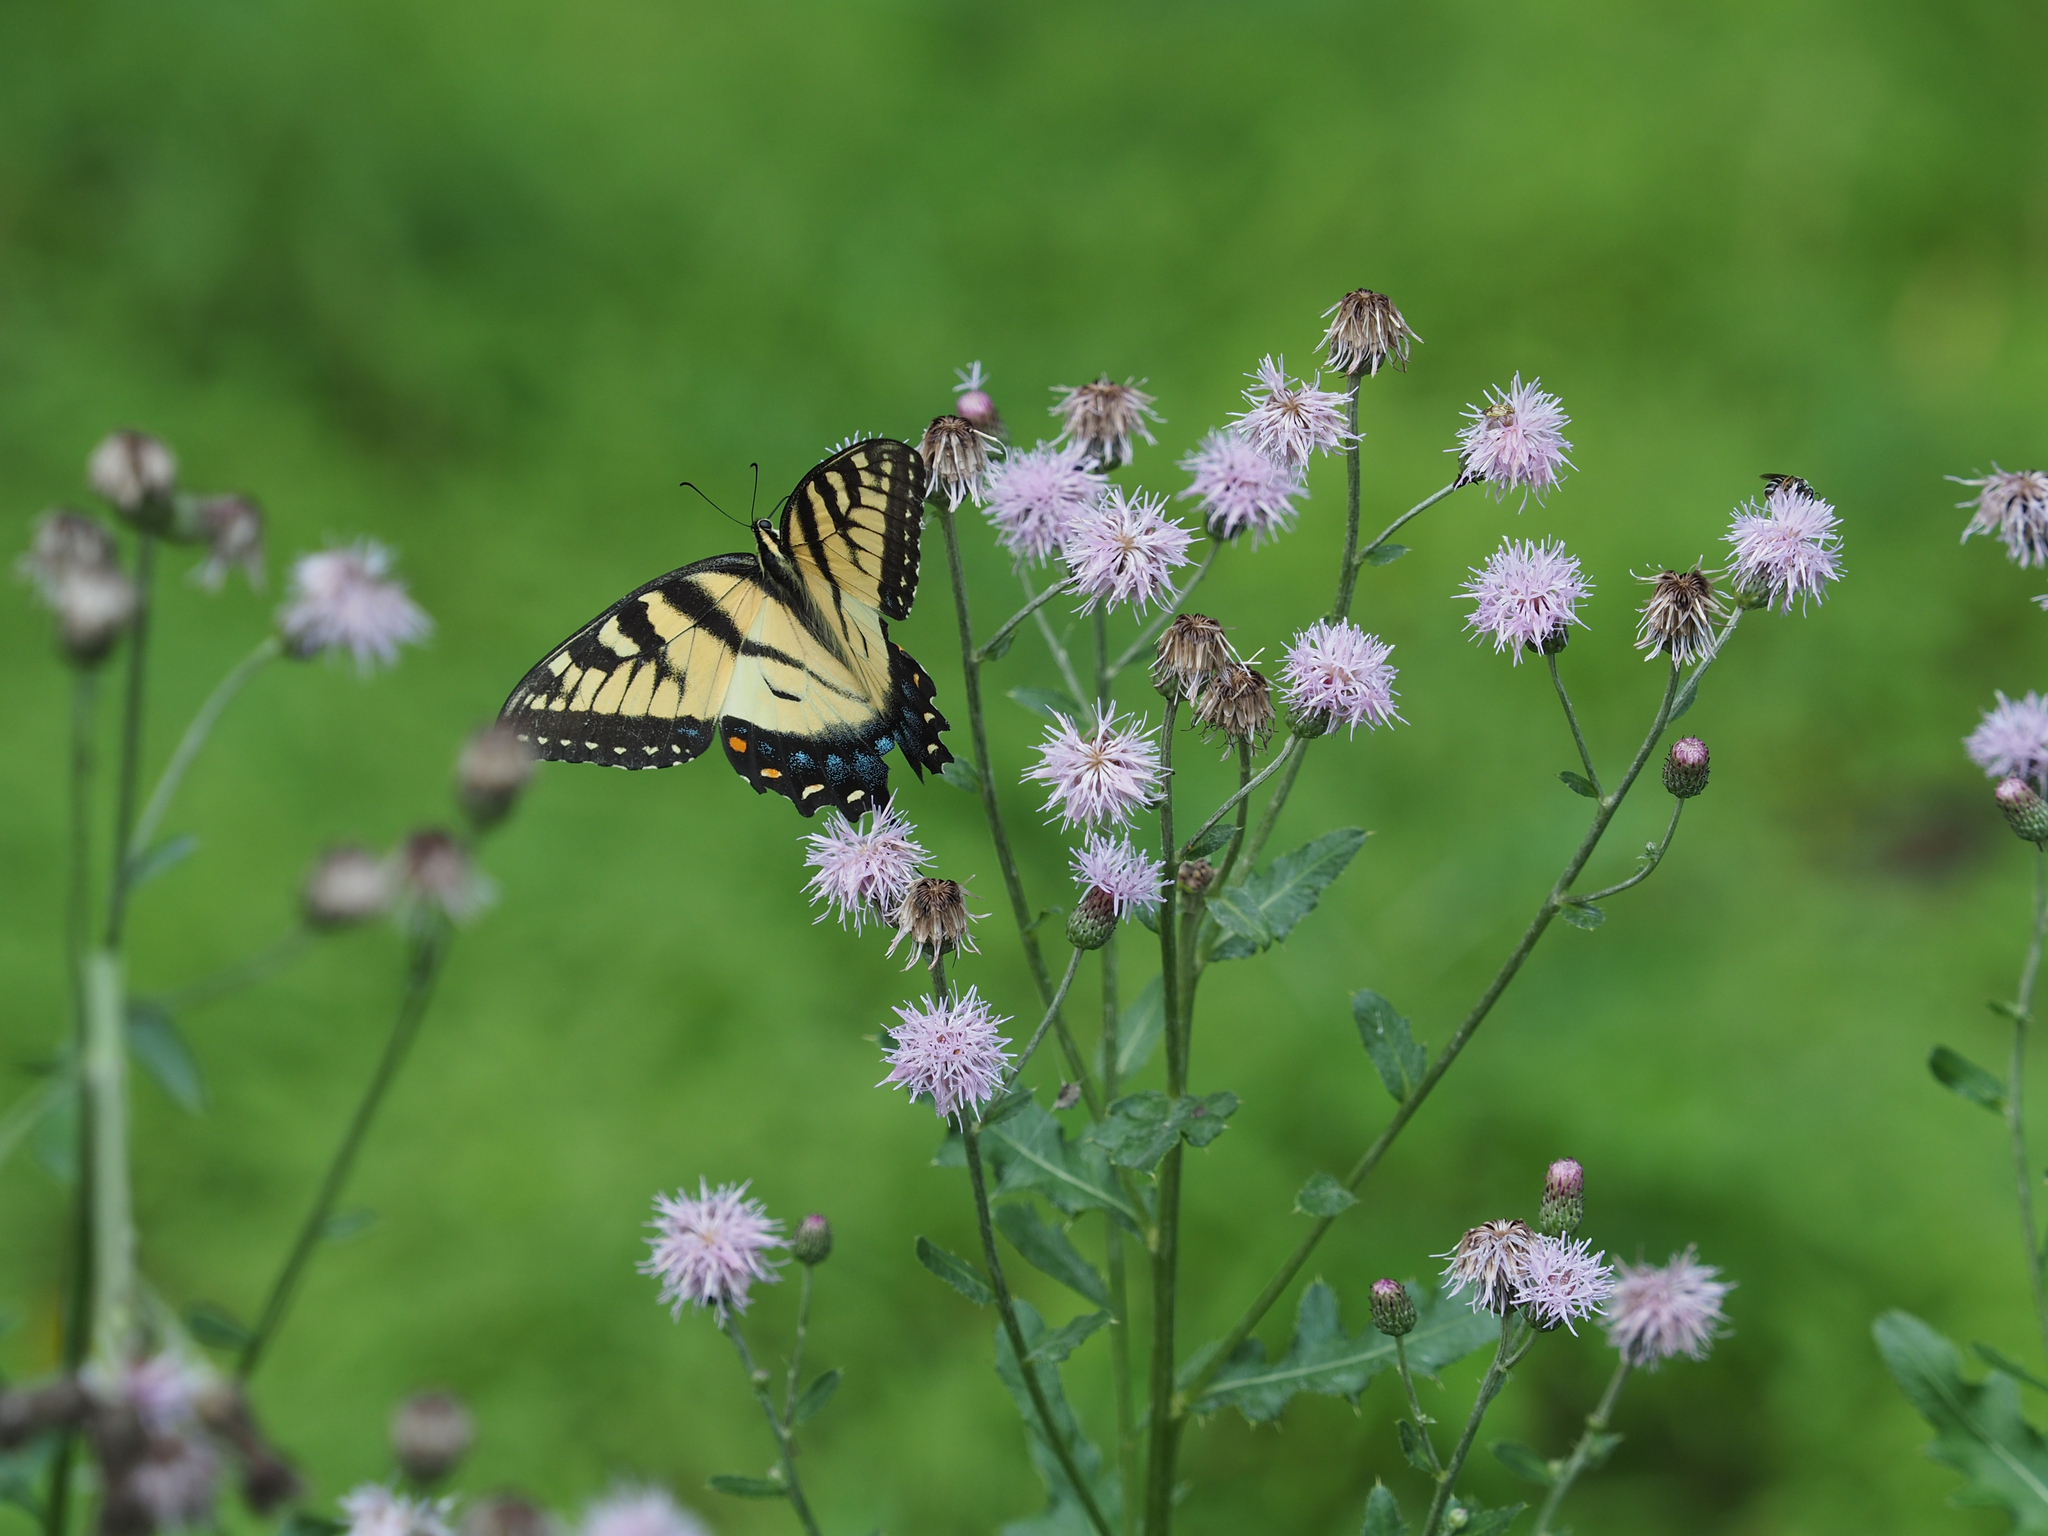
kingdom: Animalia
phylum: Arthropoda
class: Insecta
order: Lepidoptera
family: Papilionidae
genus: Papilio
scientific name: Papilio glaucus
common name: Tiger swallowtail
